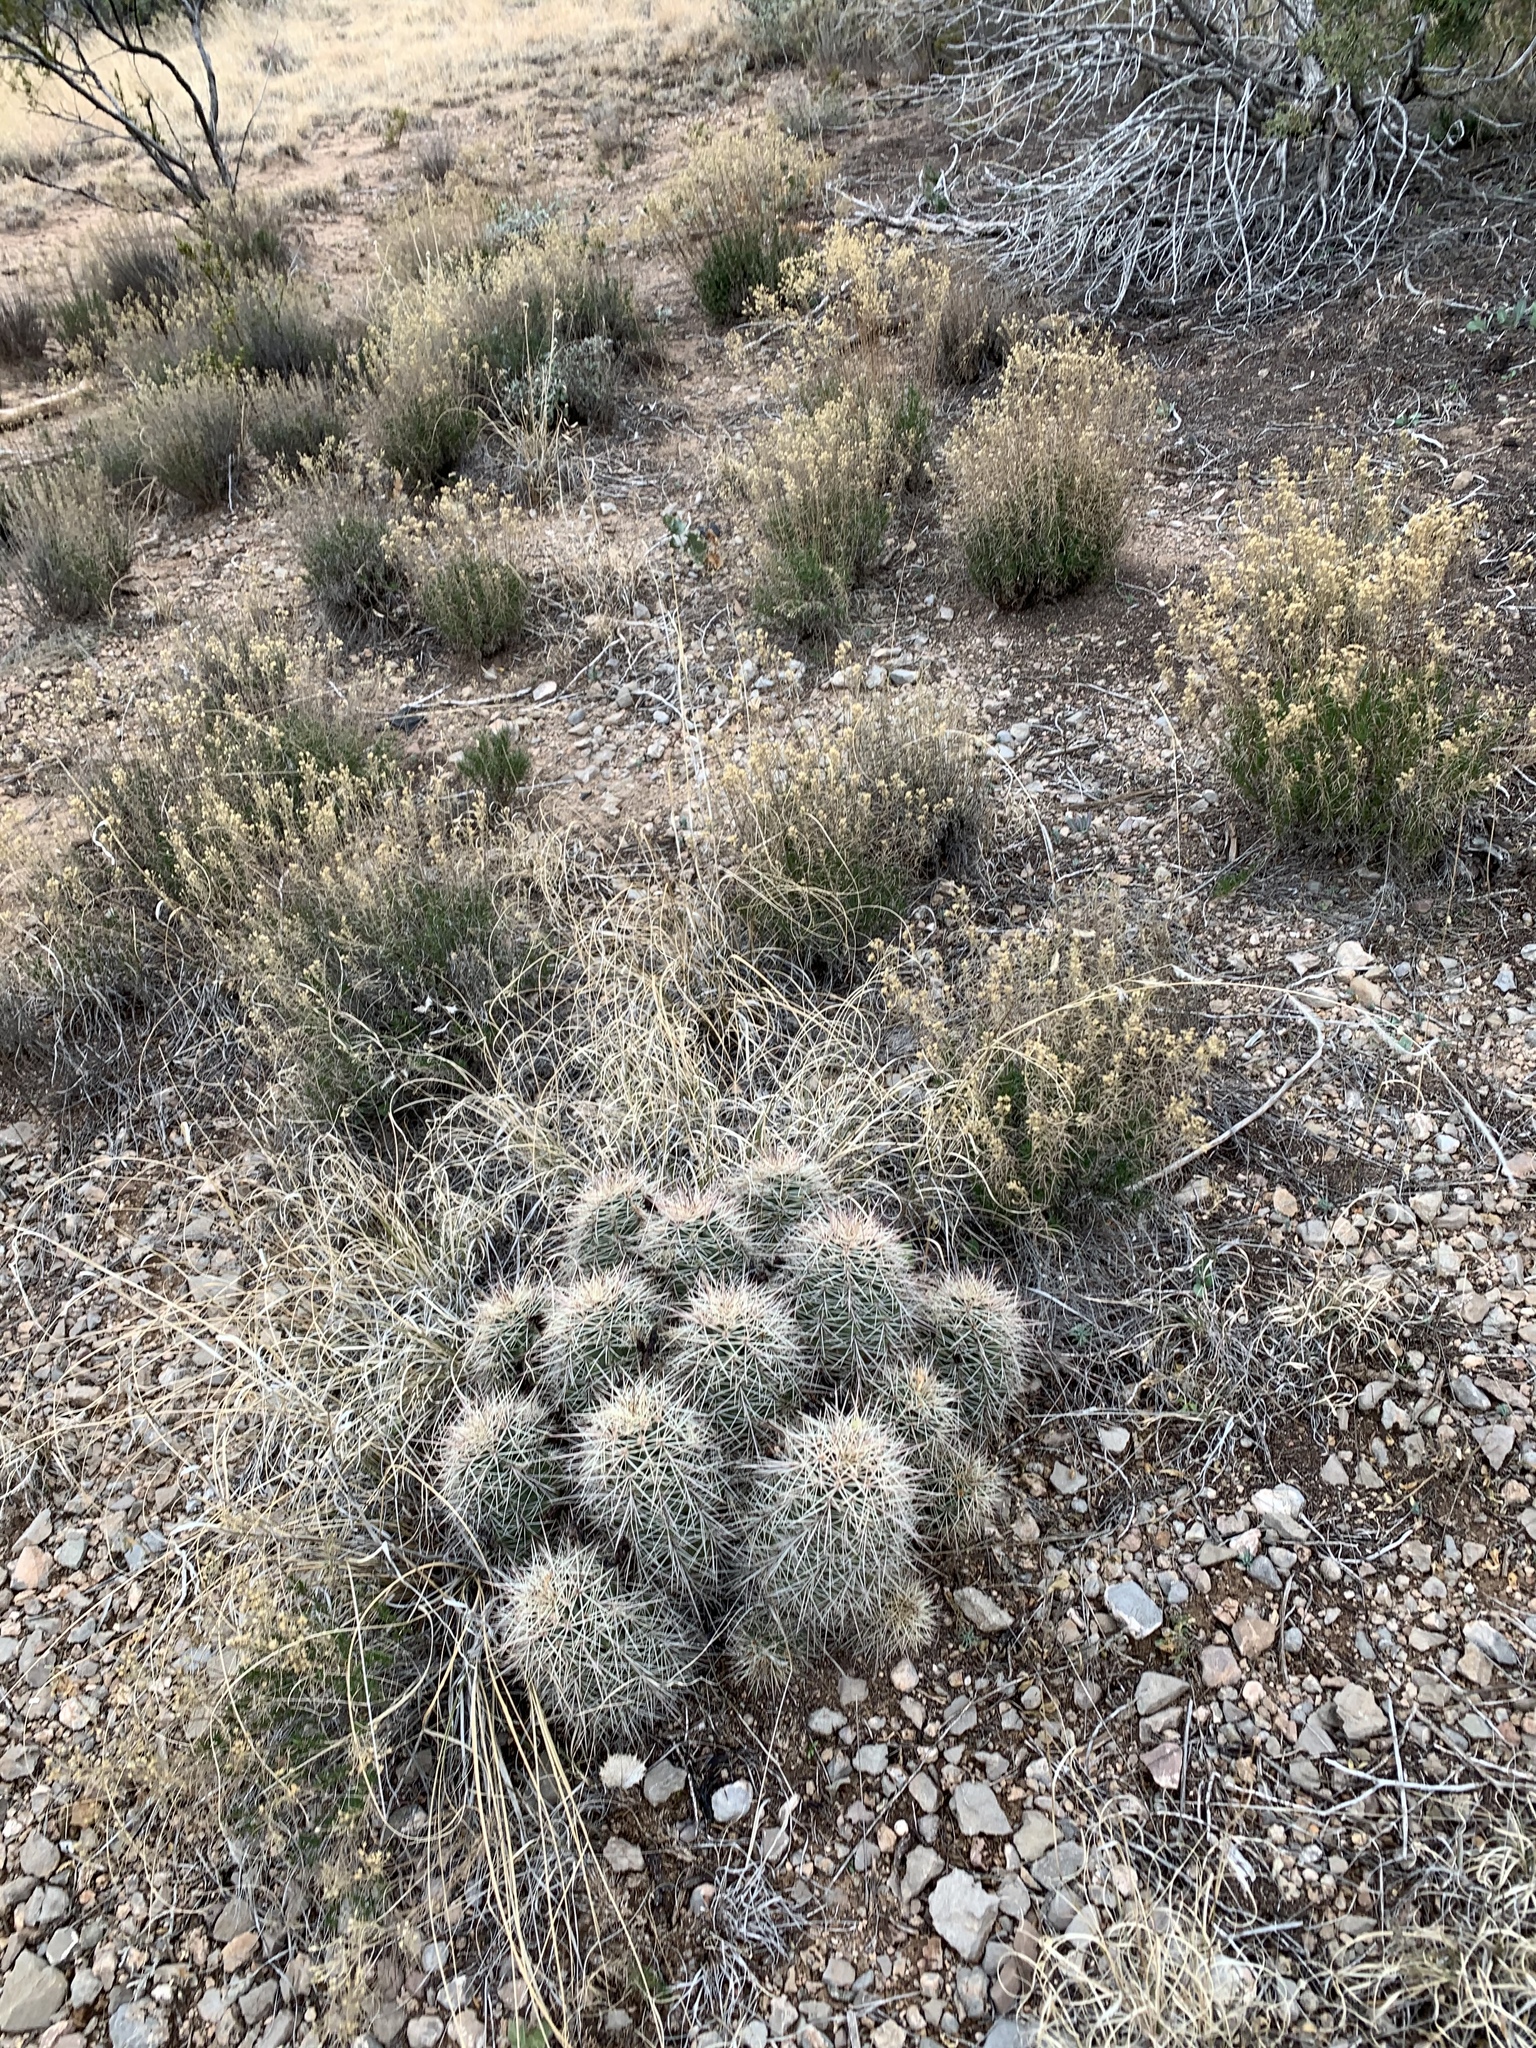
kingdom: Plantae
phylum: Tracheophyta
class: Magnoliopsida
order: Caryophyllales
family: Cactaceae
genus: Echinocereus
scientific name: Echinocereus coccineus
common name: Scarlet hedgehog cactus
